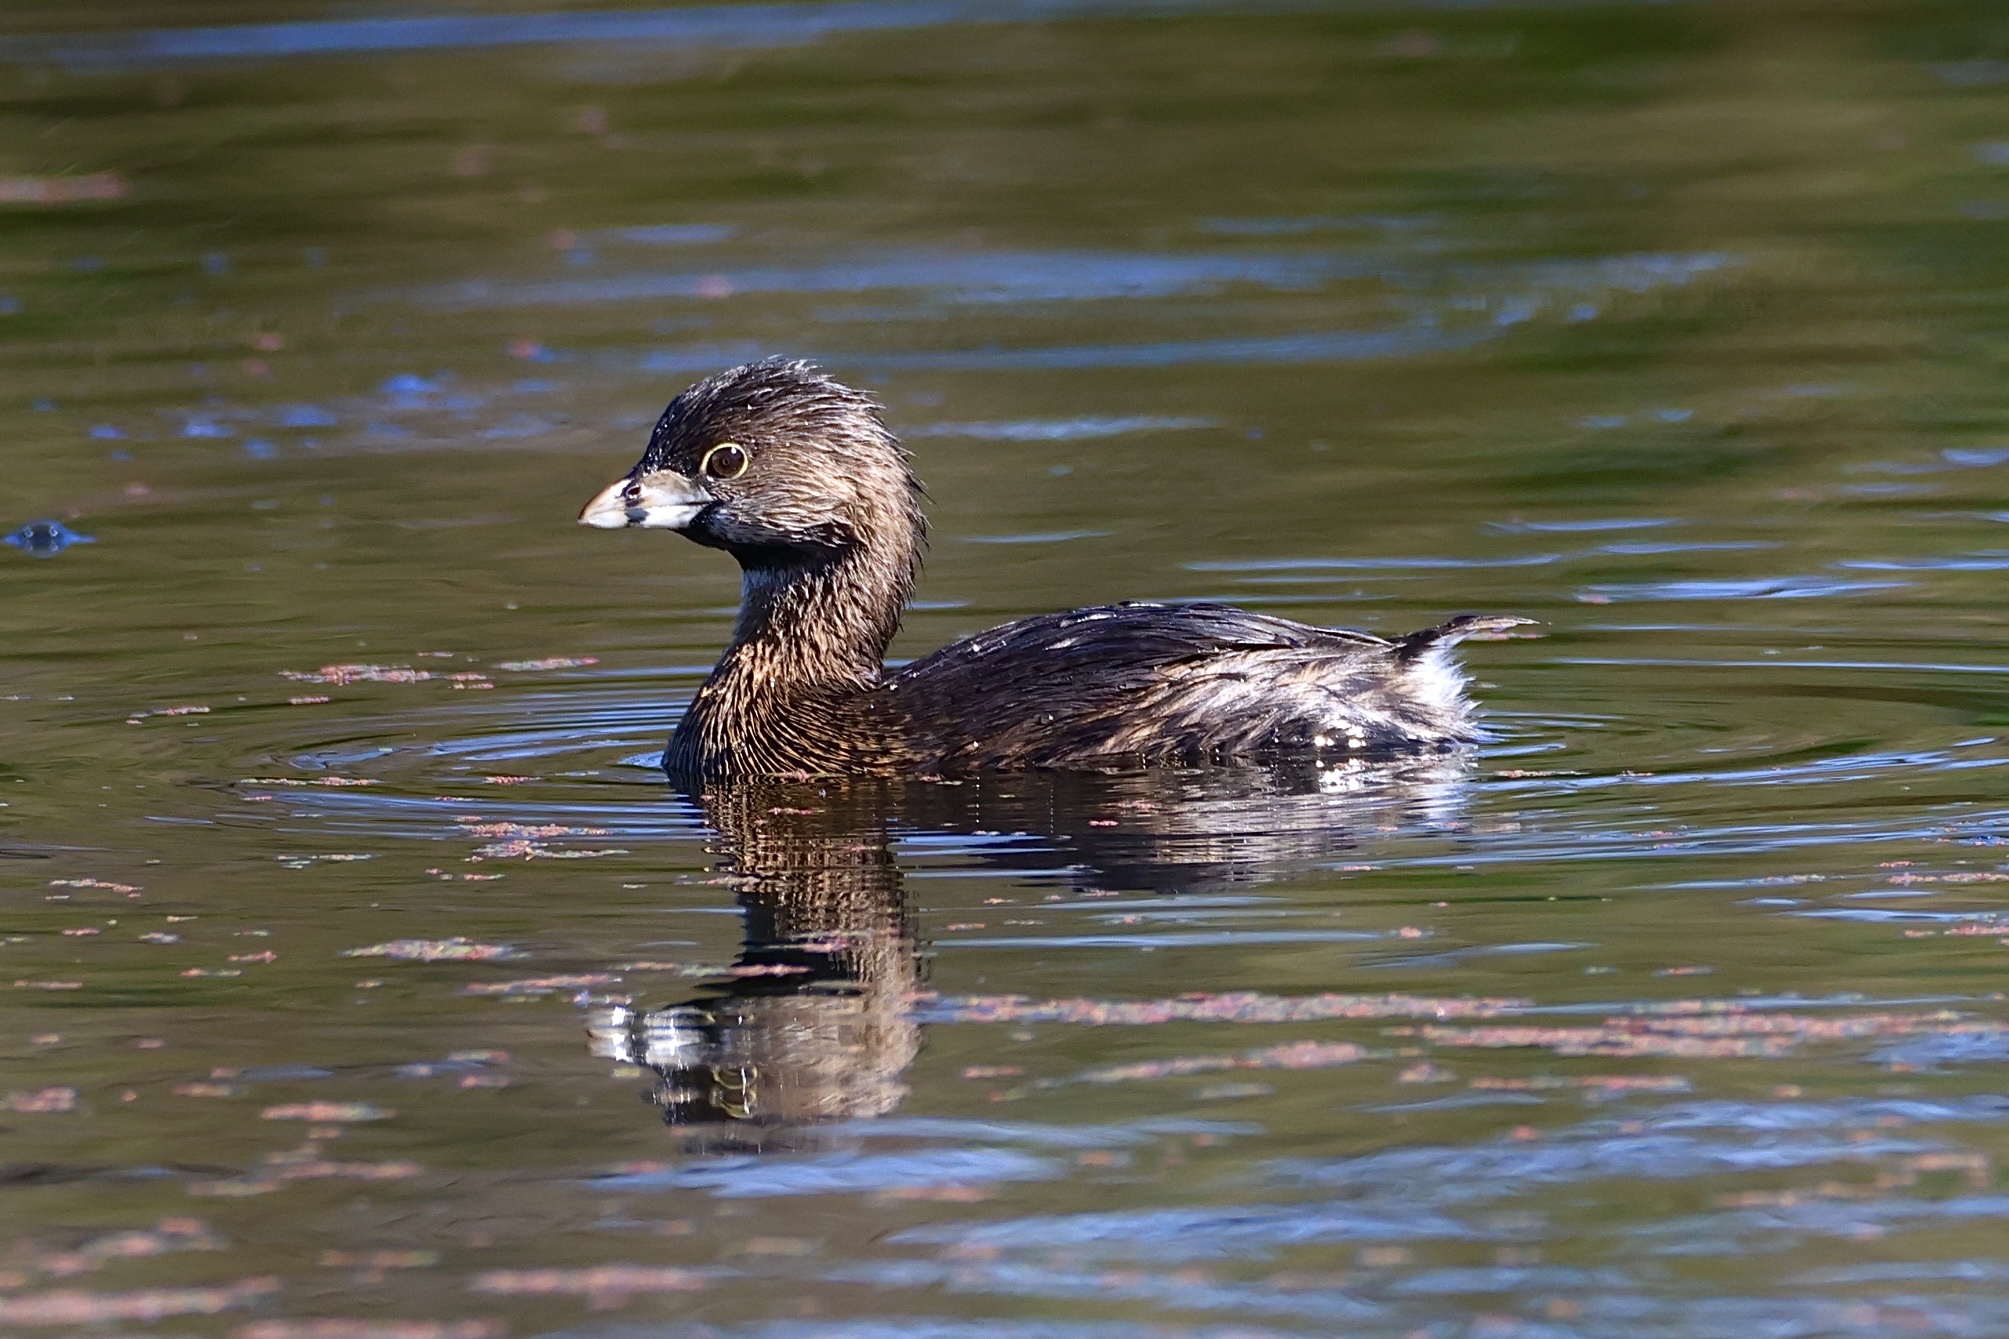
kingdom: Animalia
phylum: Chordata
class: Aves
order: Podicipediformes
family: Podicipedidae
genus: Podilymbus
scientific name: Podilymbus podiceps
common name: Pied-billed grebe
